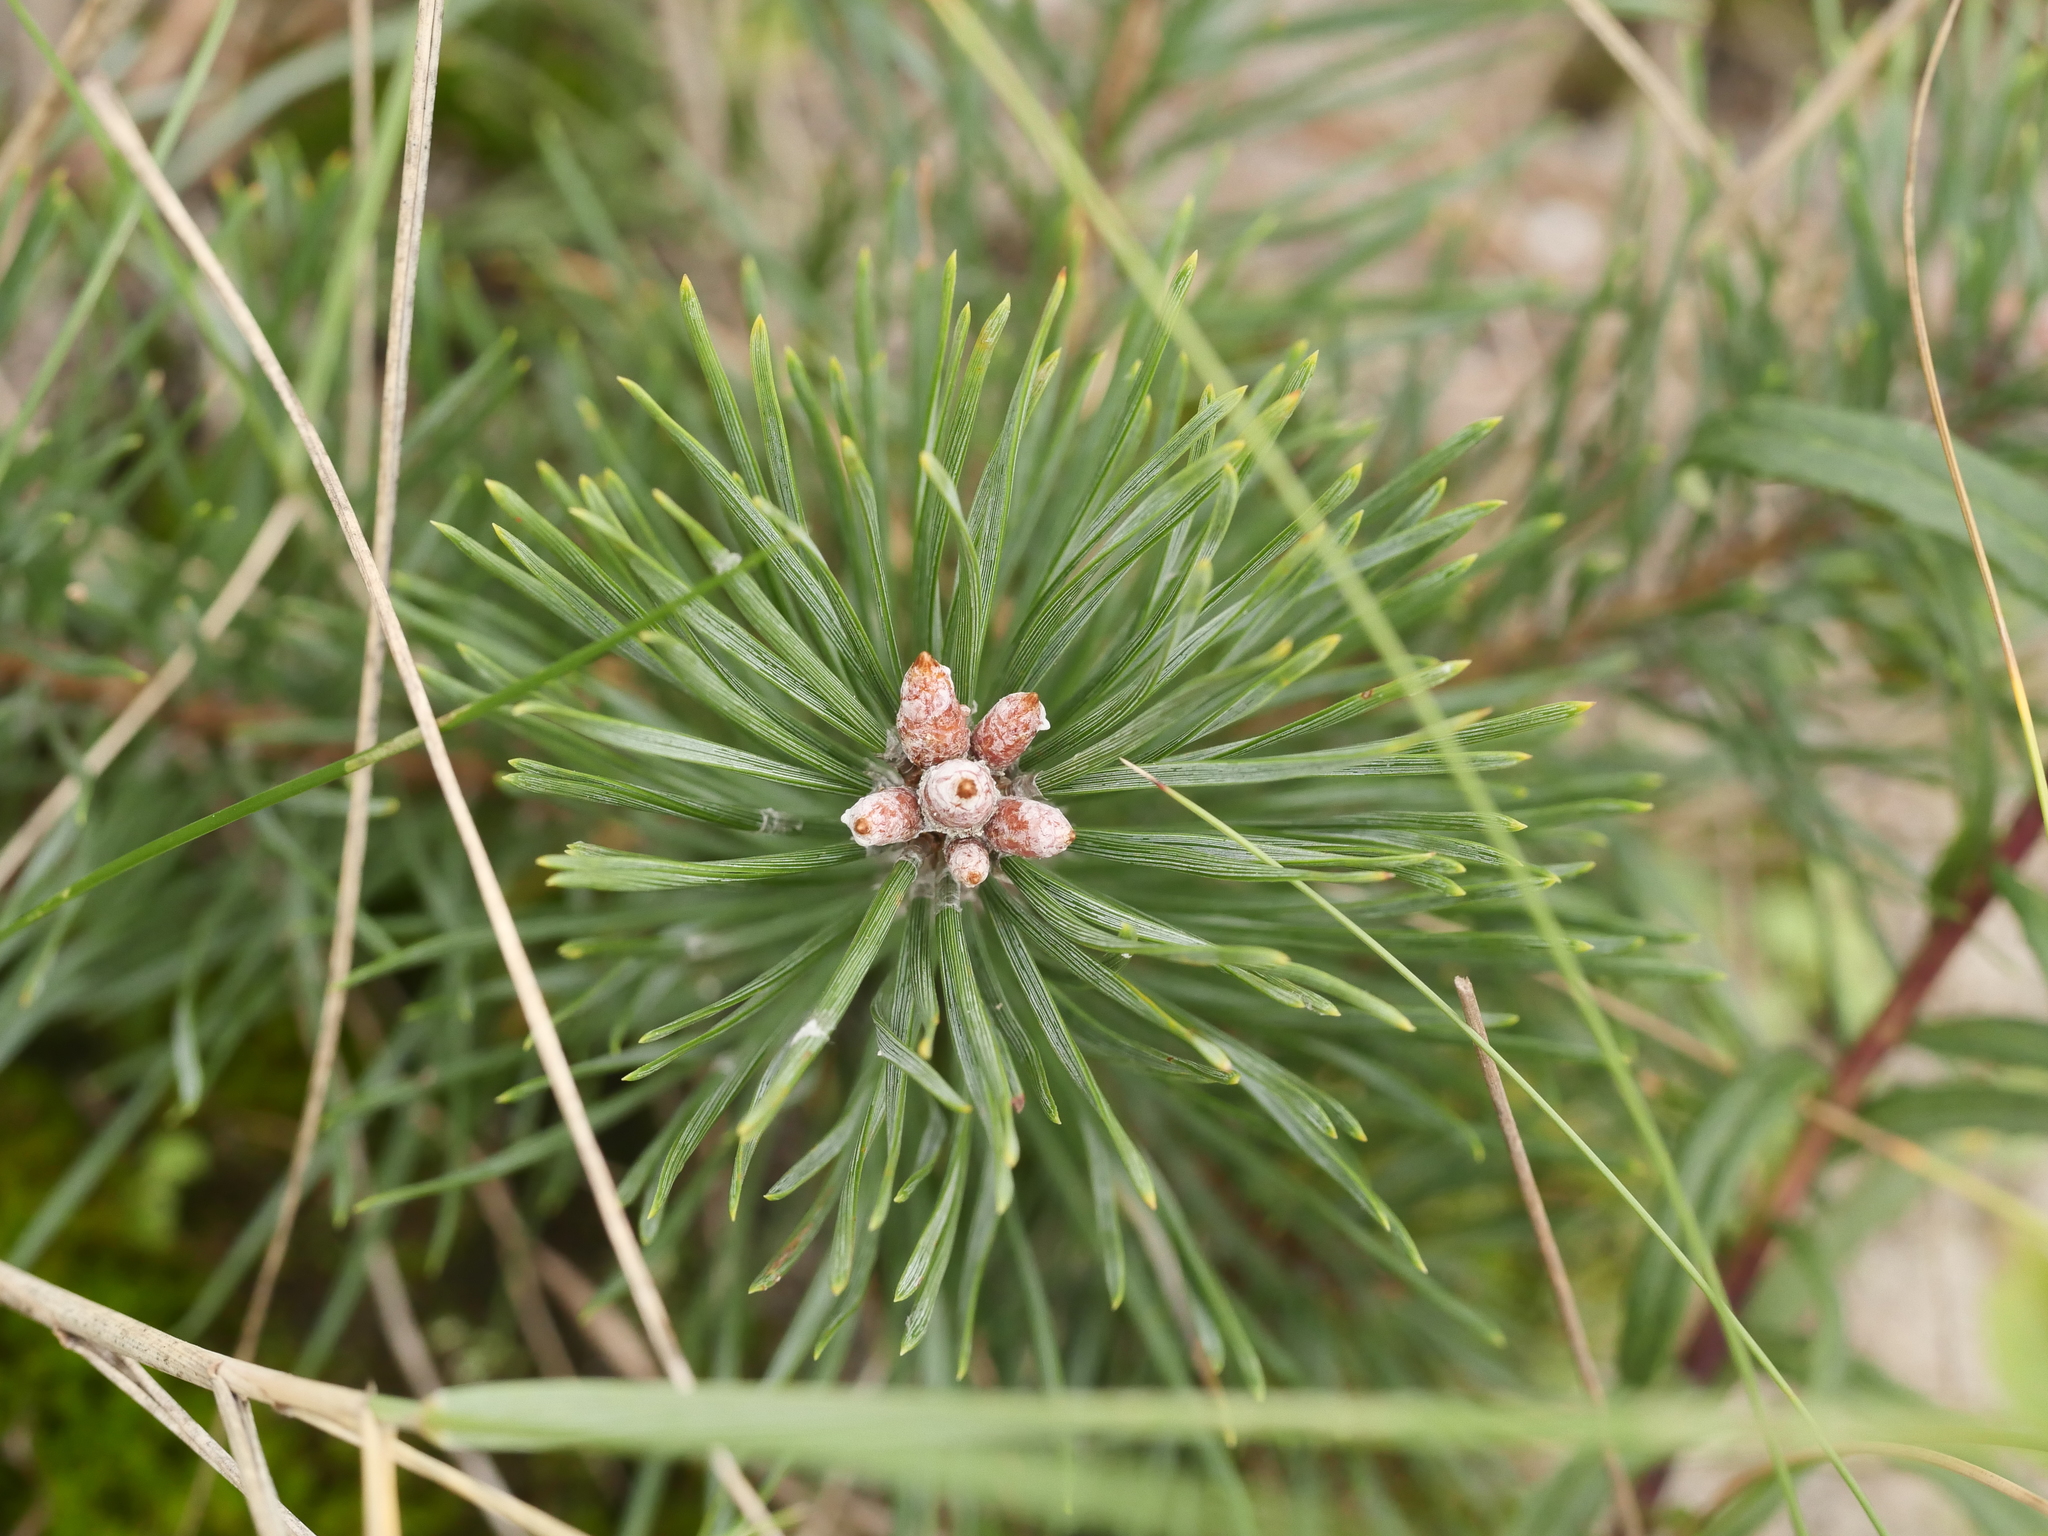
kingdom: Plantae
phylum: Tracheophyta
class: Pinopsida
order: Pinales
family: Pinaceae
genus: Pinus
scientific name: Pinus sylvestris
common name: Scots pine
